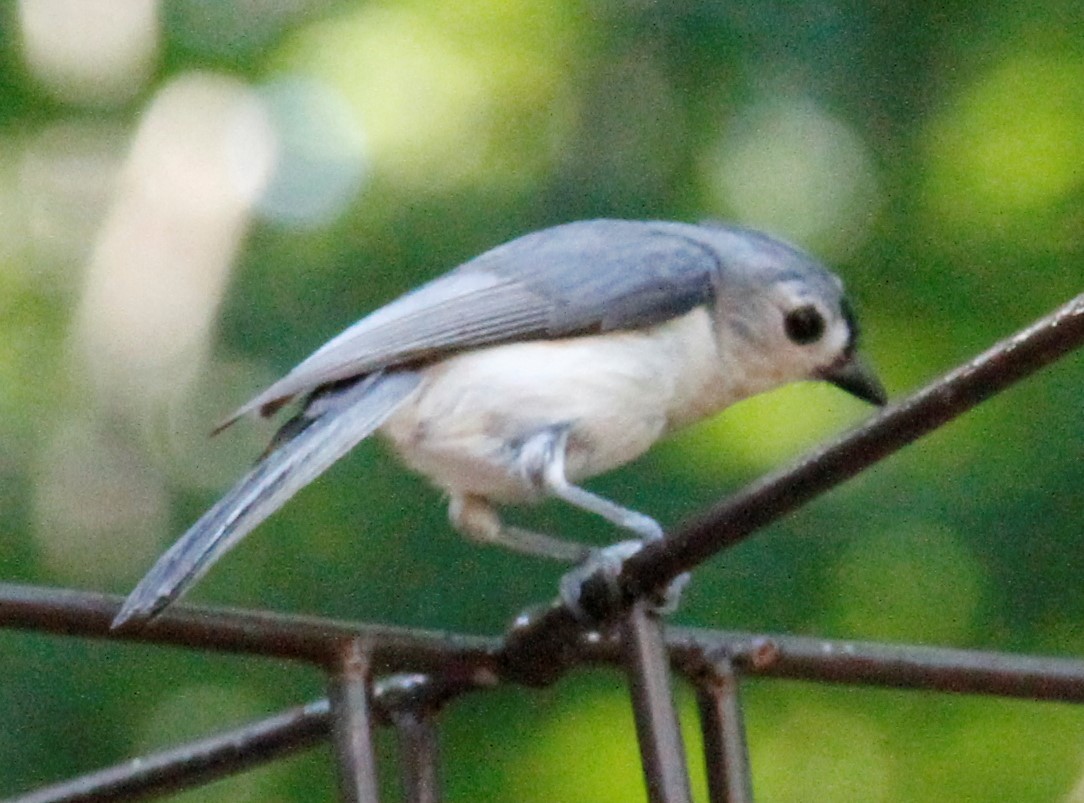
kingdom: Animalia
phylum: Chordata
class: Aves
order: Passeriformes
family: Paridae
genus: Baeolophus
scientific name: Baeolophus bicolor
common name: Tufted titmouse
